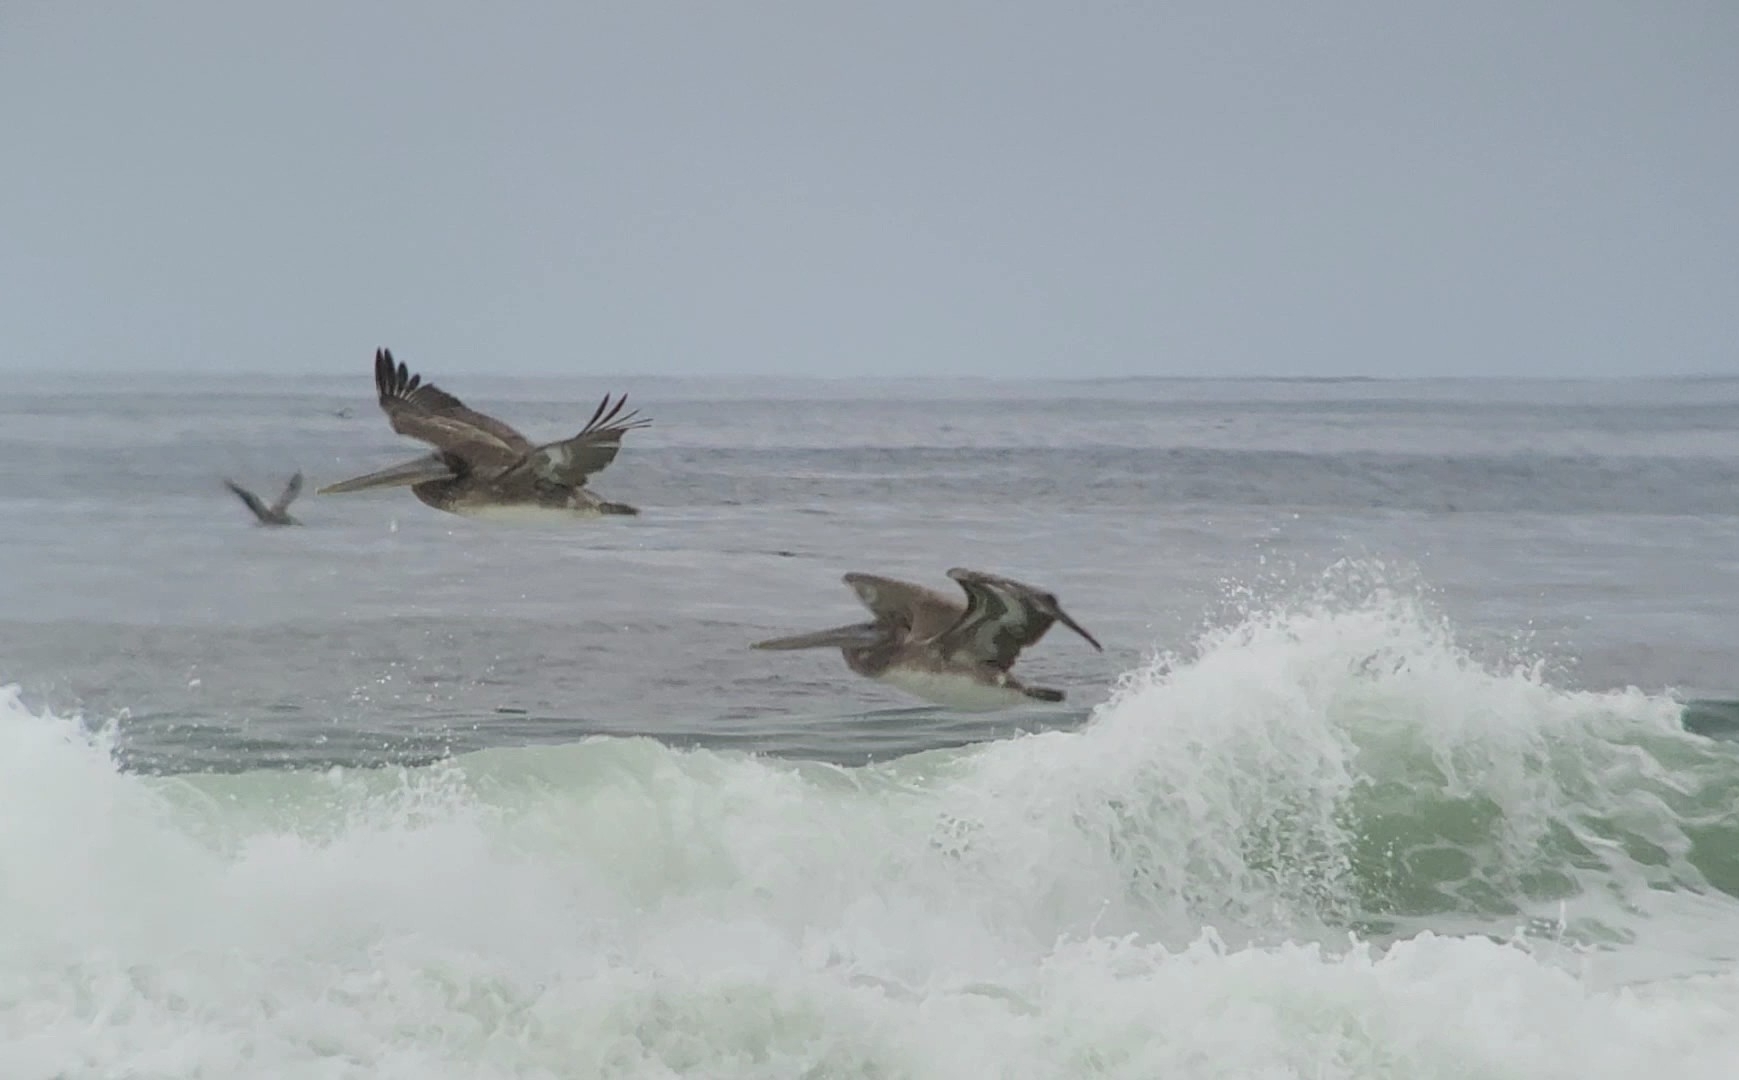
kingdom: Animalia
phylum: Chordata
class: Aves
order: Pelecaniformes
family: Pelecanidae
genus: Pelecanus
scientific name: Pelecanus occidentalis
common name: Brown pelican
